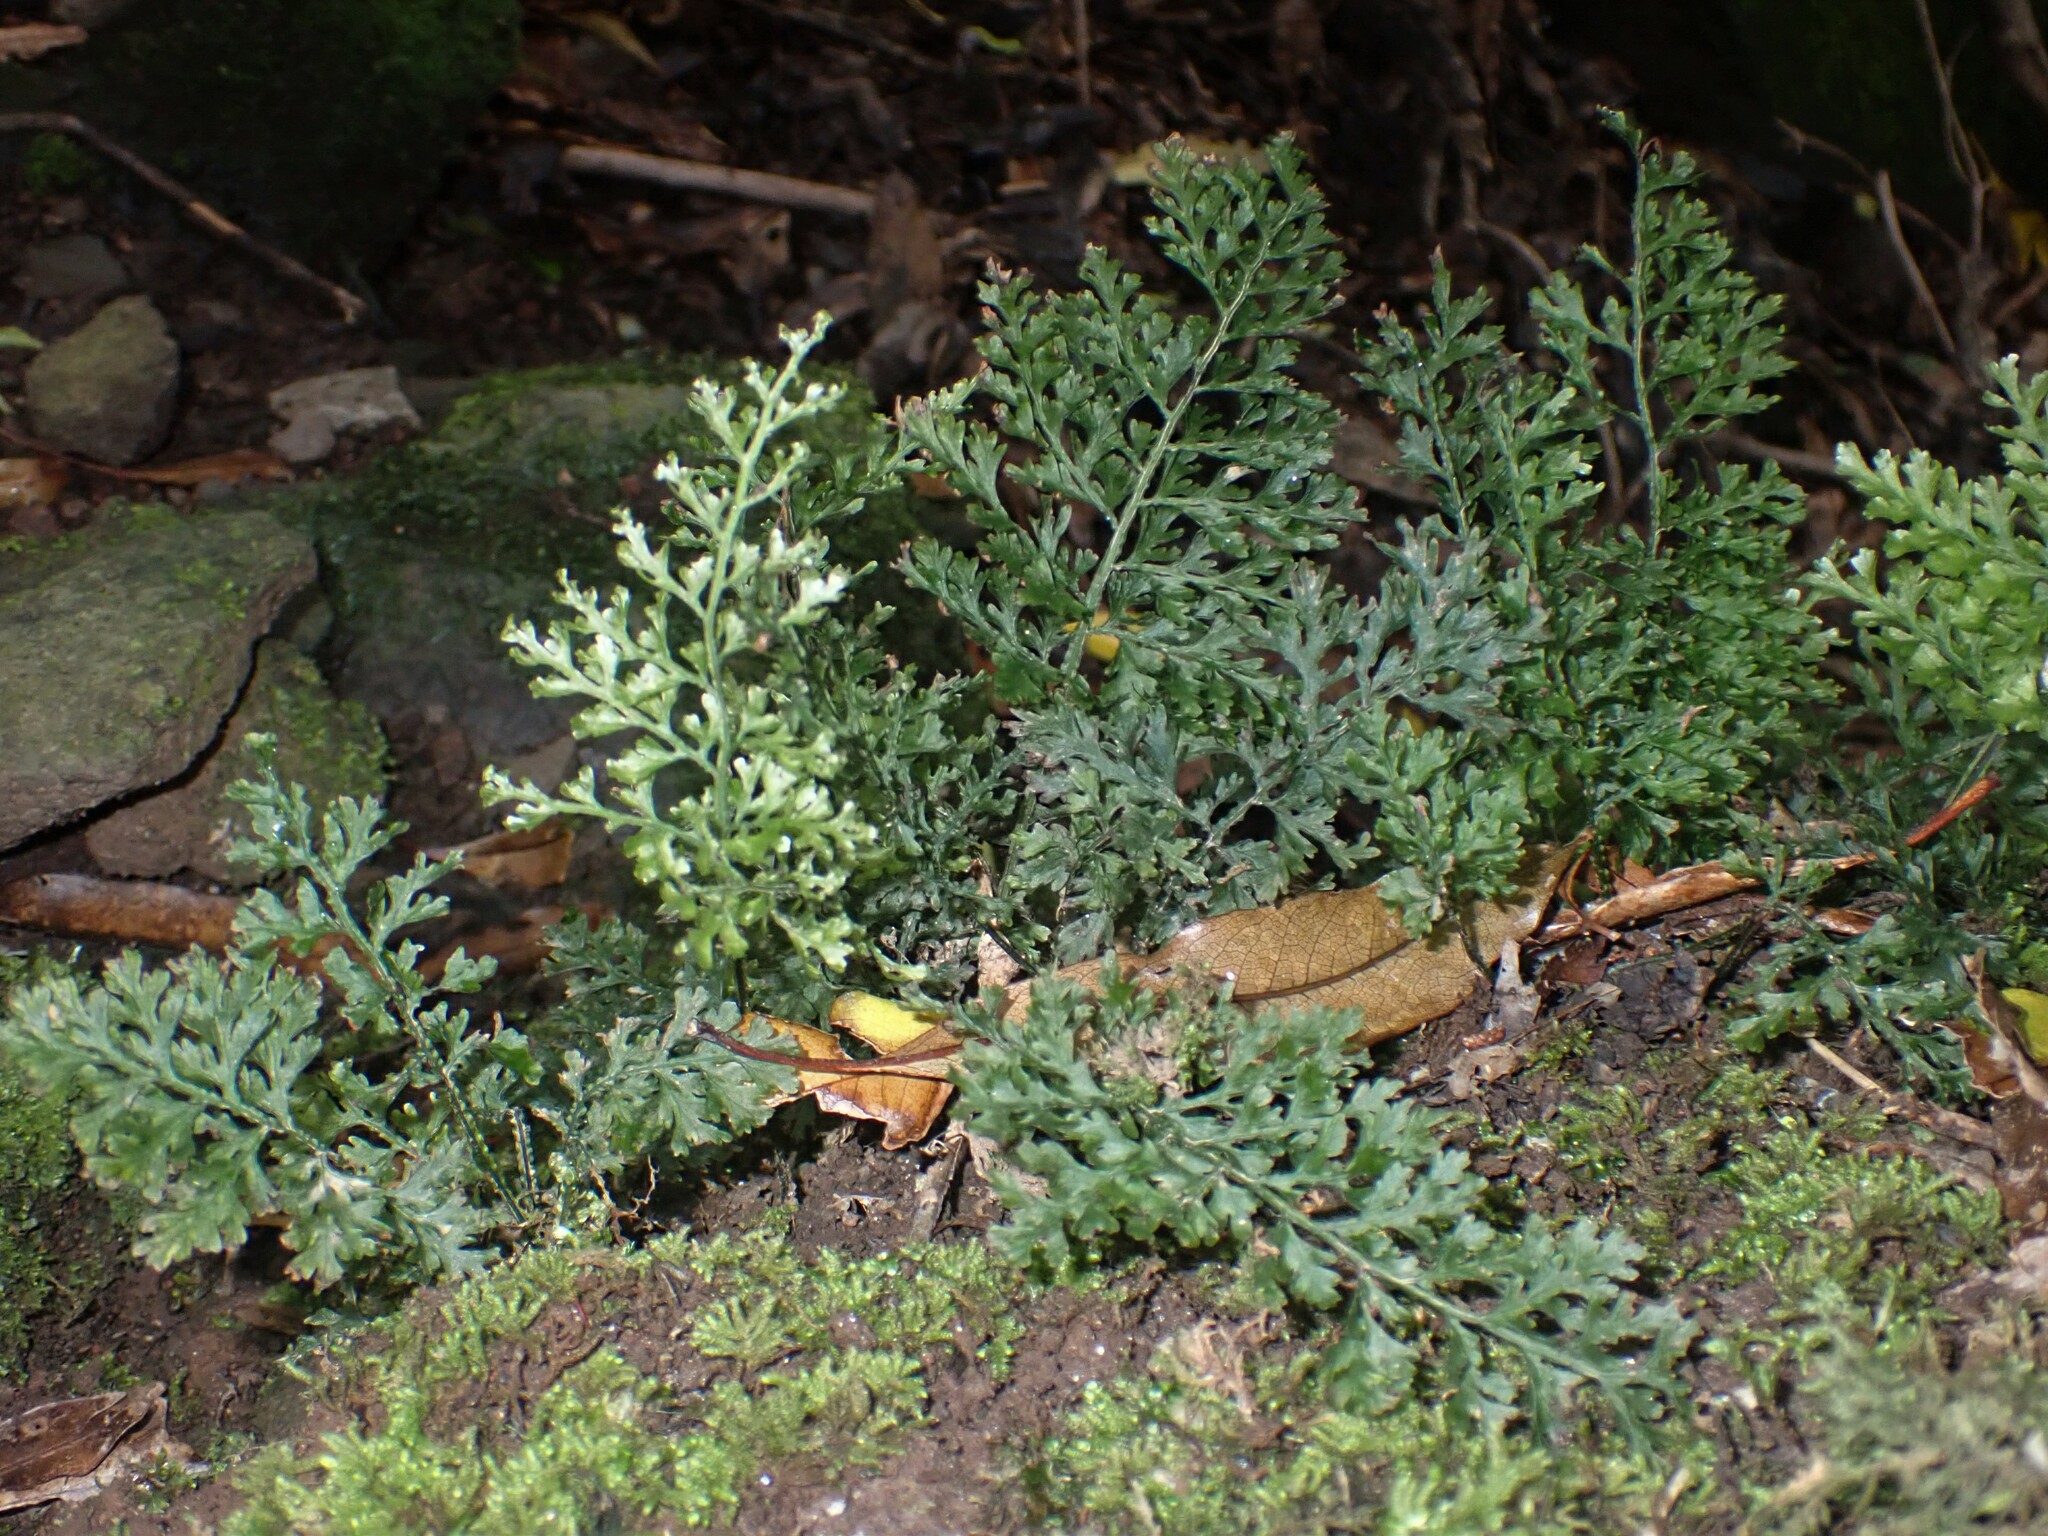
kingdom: Plantae
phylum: Tracheophyta
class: Polypodiopsida
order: Hymenophyllales
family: Hymenophyllaceae
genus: Vandenboschia
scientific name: Vandenboschia speciosa
